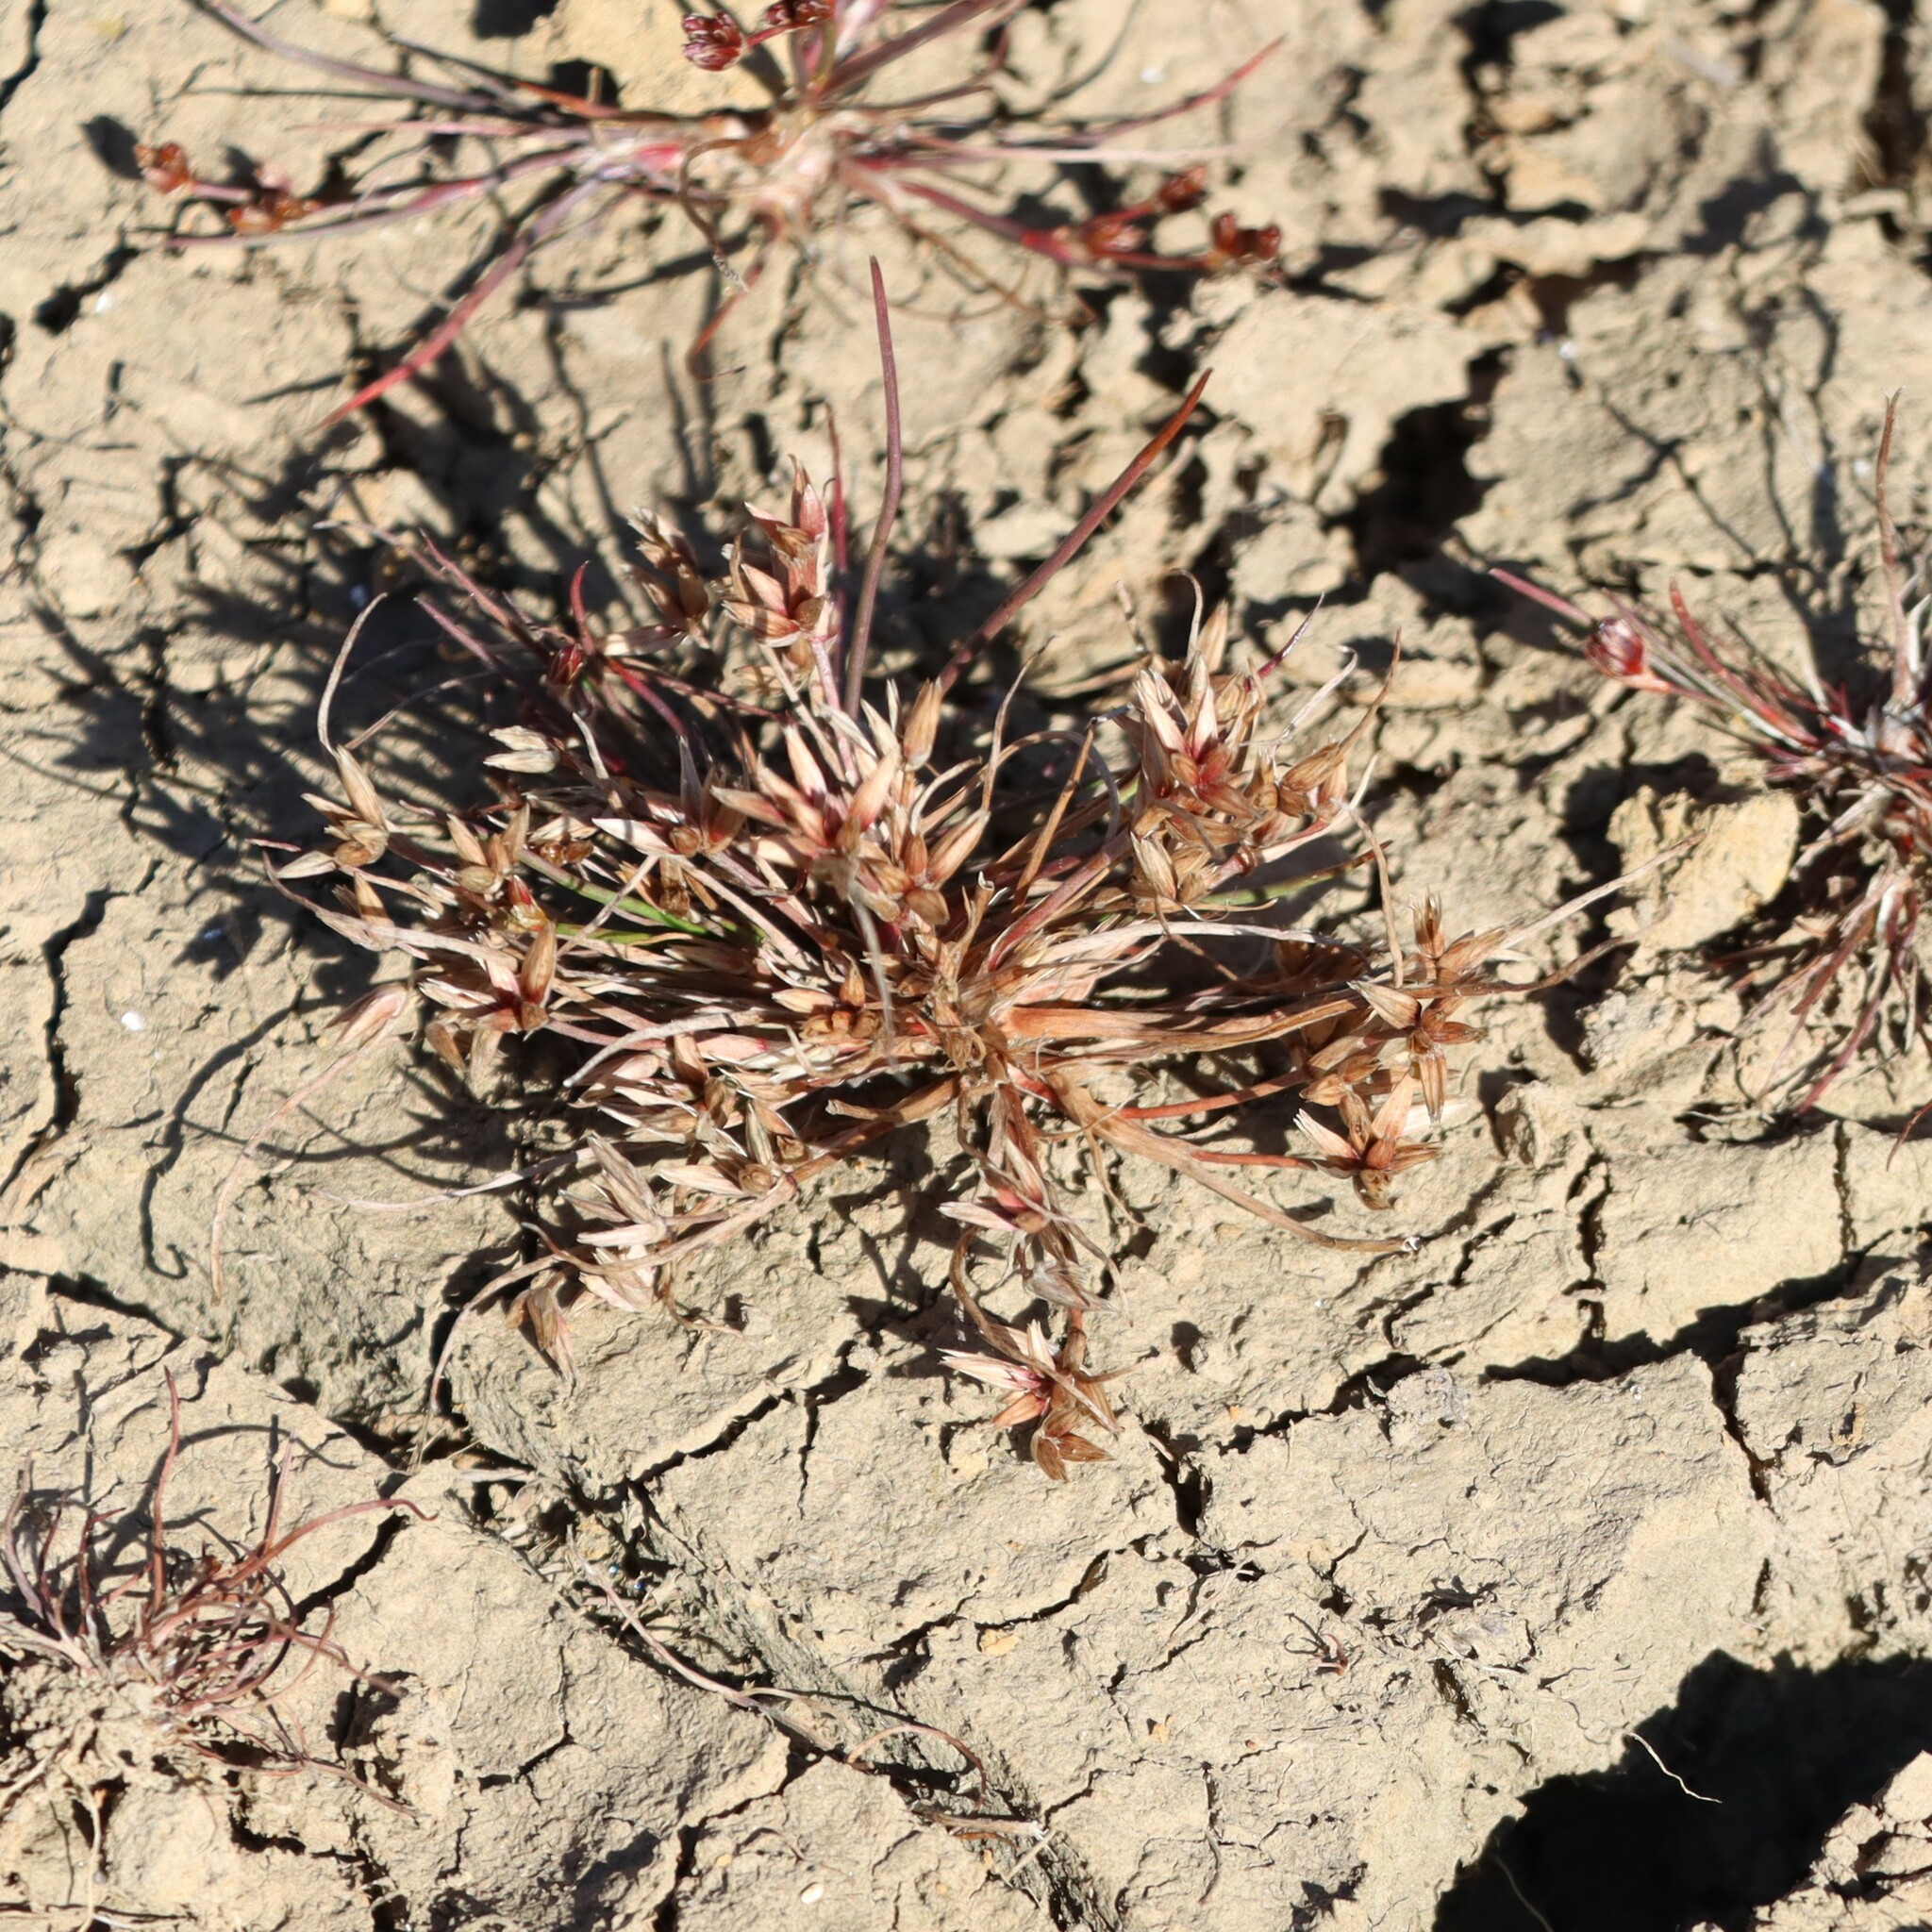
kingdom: Plantae
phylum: Tracheophyta
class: Liliopsida
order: Poales
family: Juncaceae
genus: Juncus
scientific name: Juncus pygmaeus
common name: Pigmy rush
